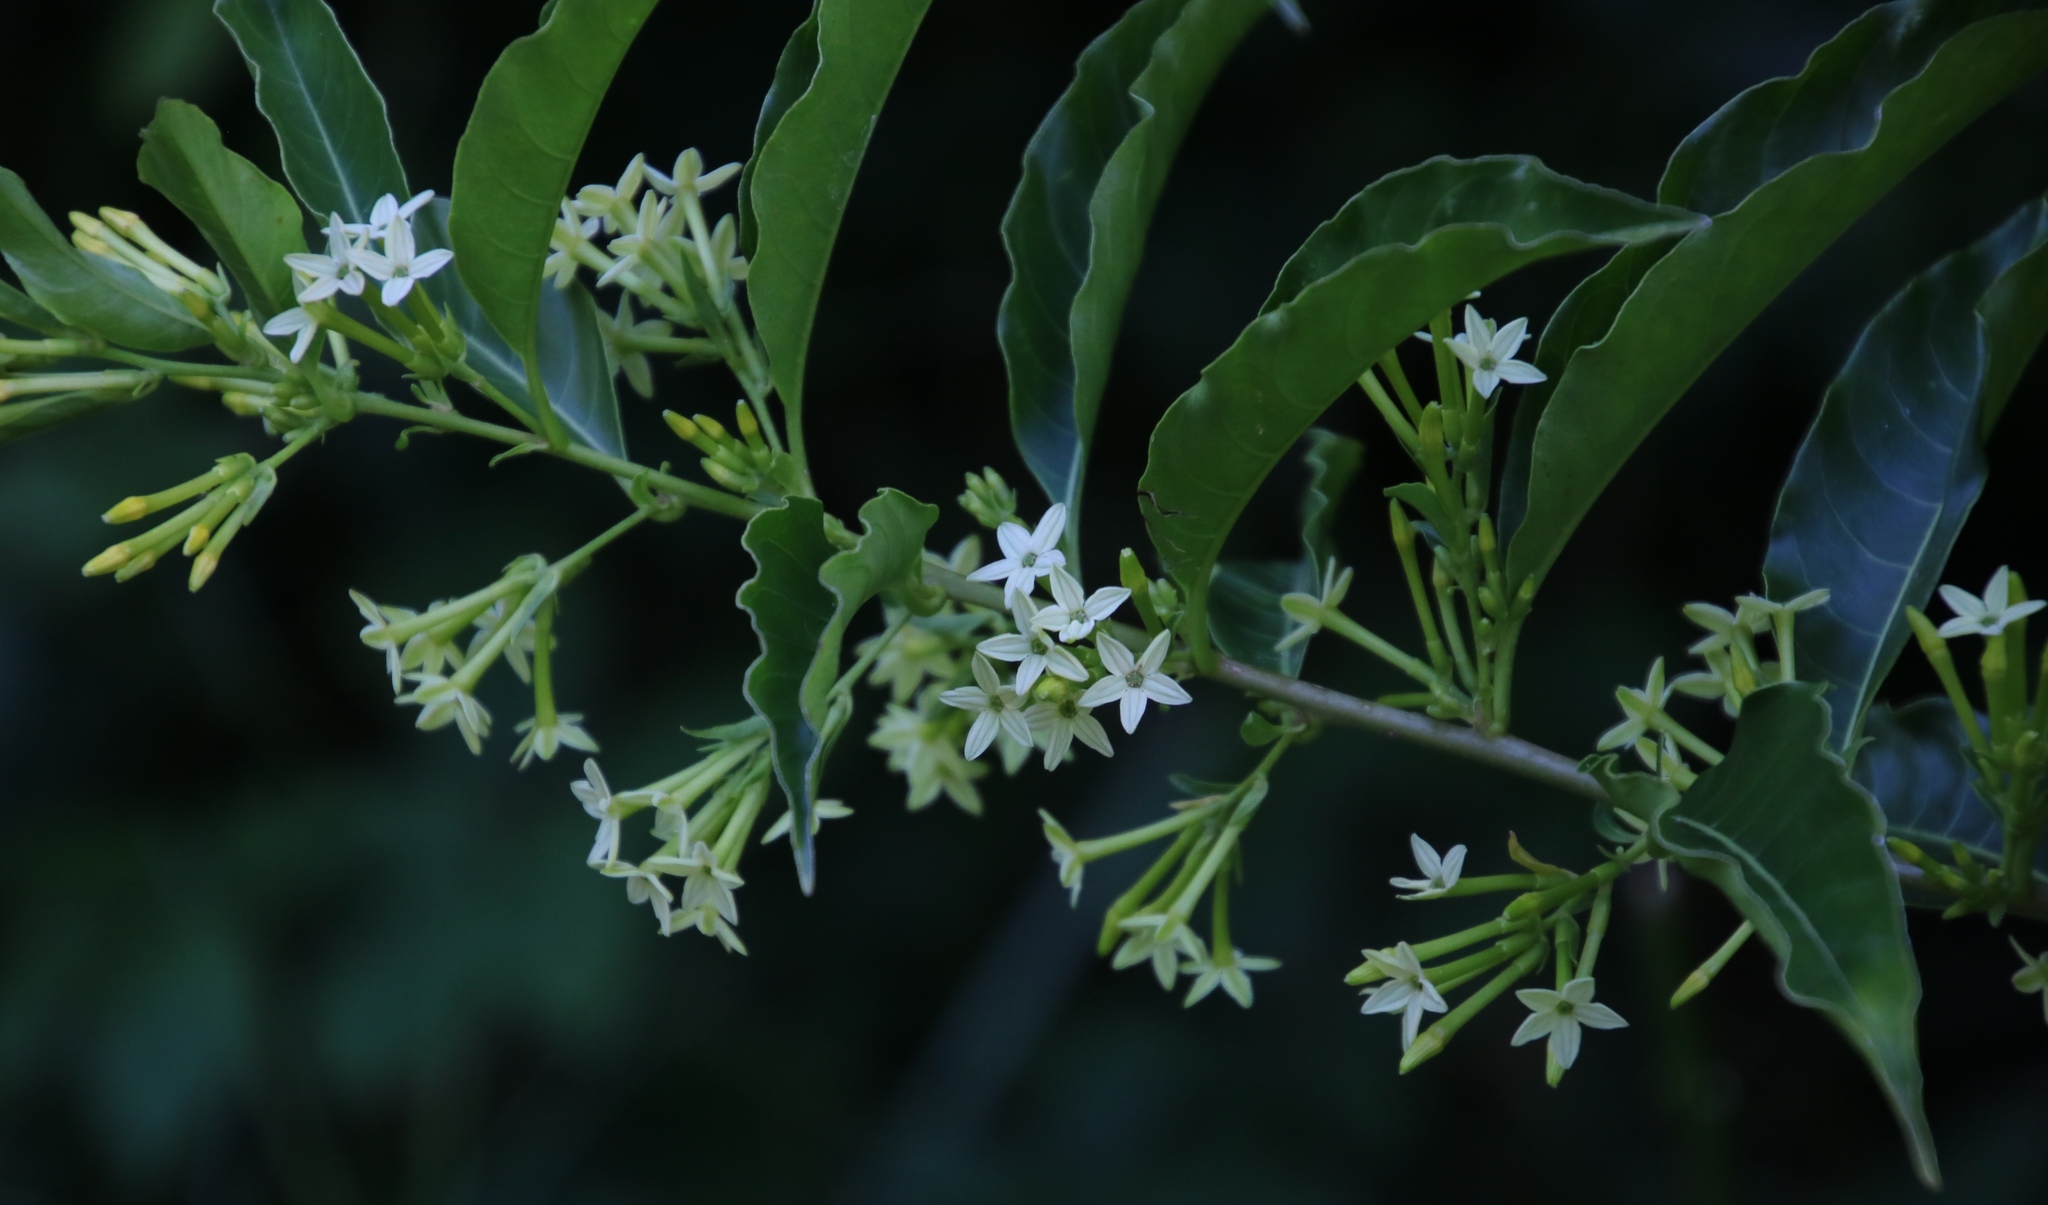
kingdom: Plantae
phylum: Tracheophyta
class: Magnoliopsida
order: Solanales
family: Solanaceae
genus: Cestrum
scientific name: Cestrum laevigatum
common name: Inkberry
